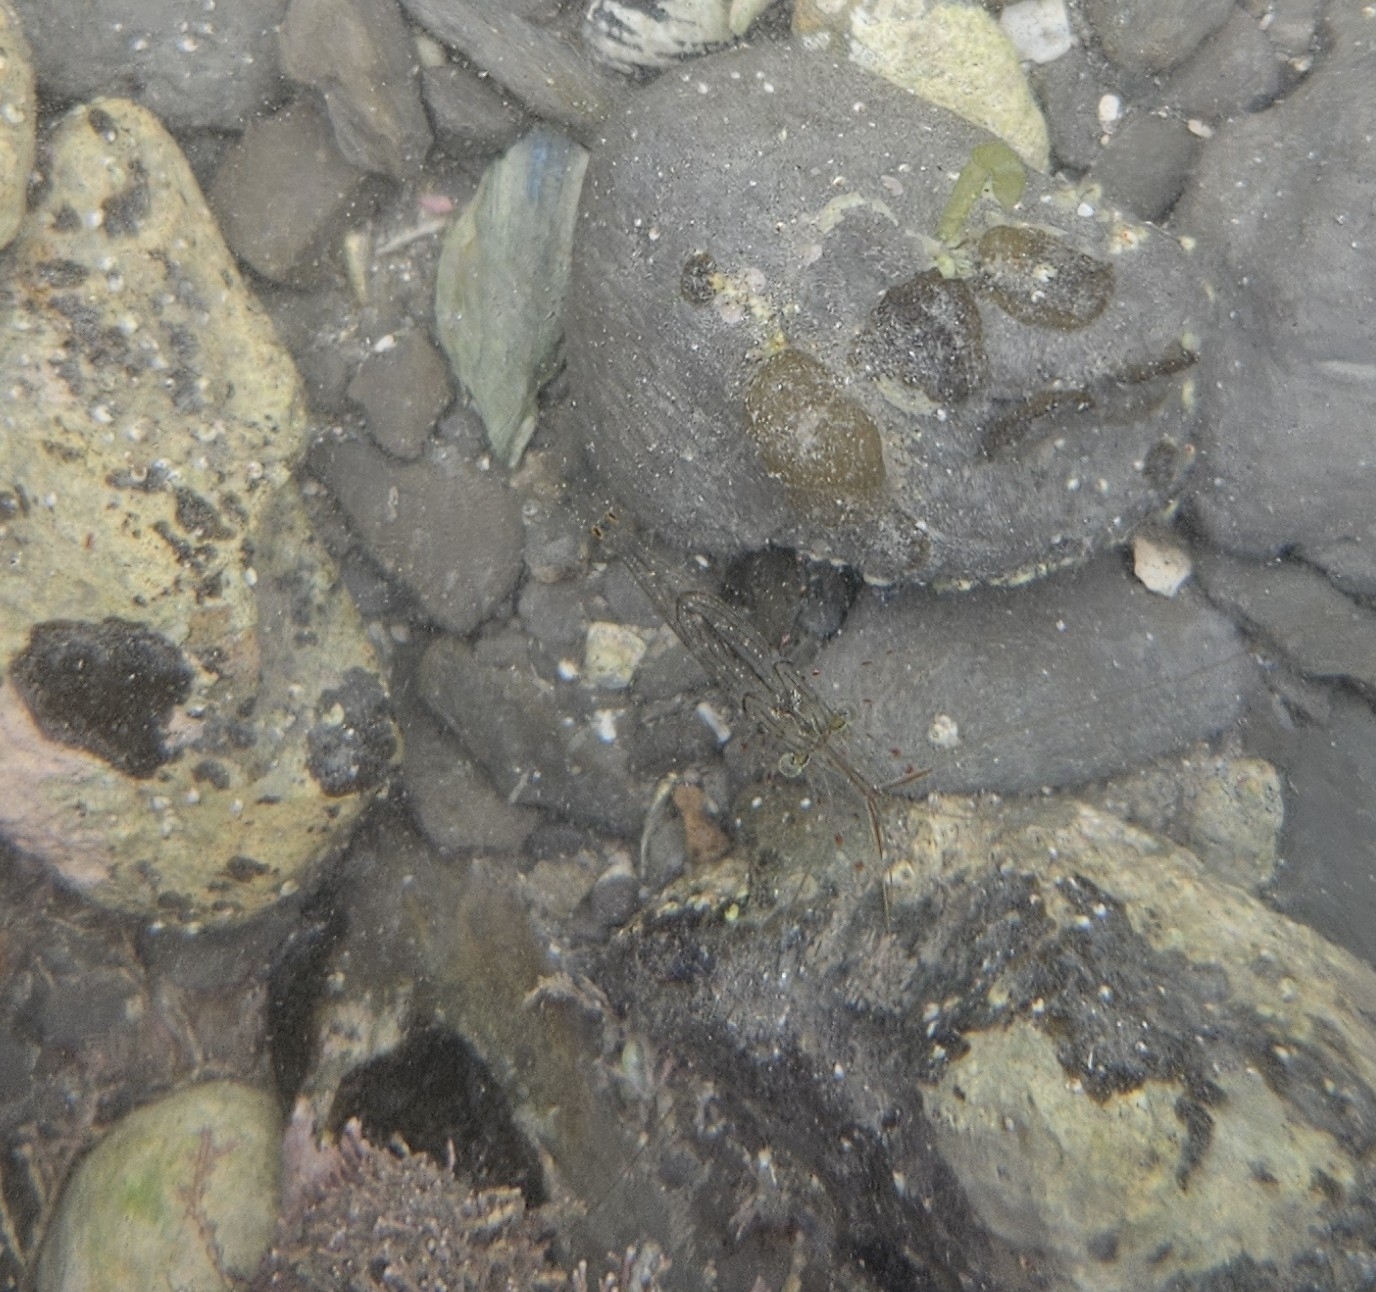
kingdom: Animalia
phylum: Arthropoda
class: Malacostraca
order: Decapoda
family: Palaemonidae
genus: Palaemon
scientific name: Palaemon affinis
